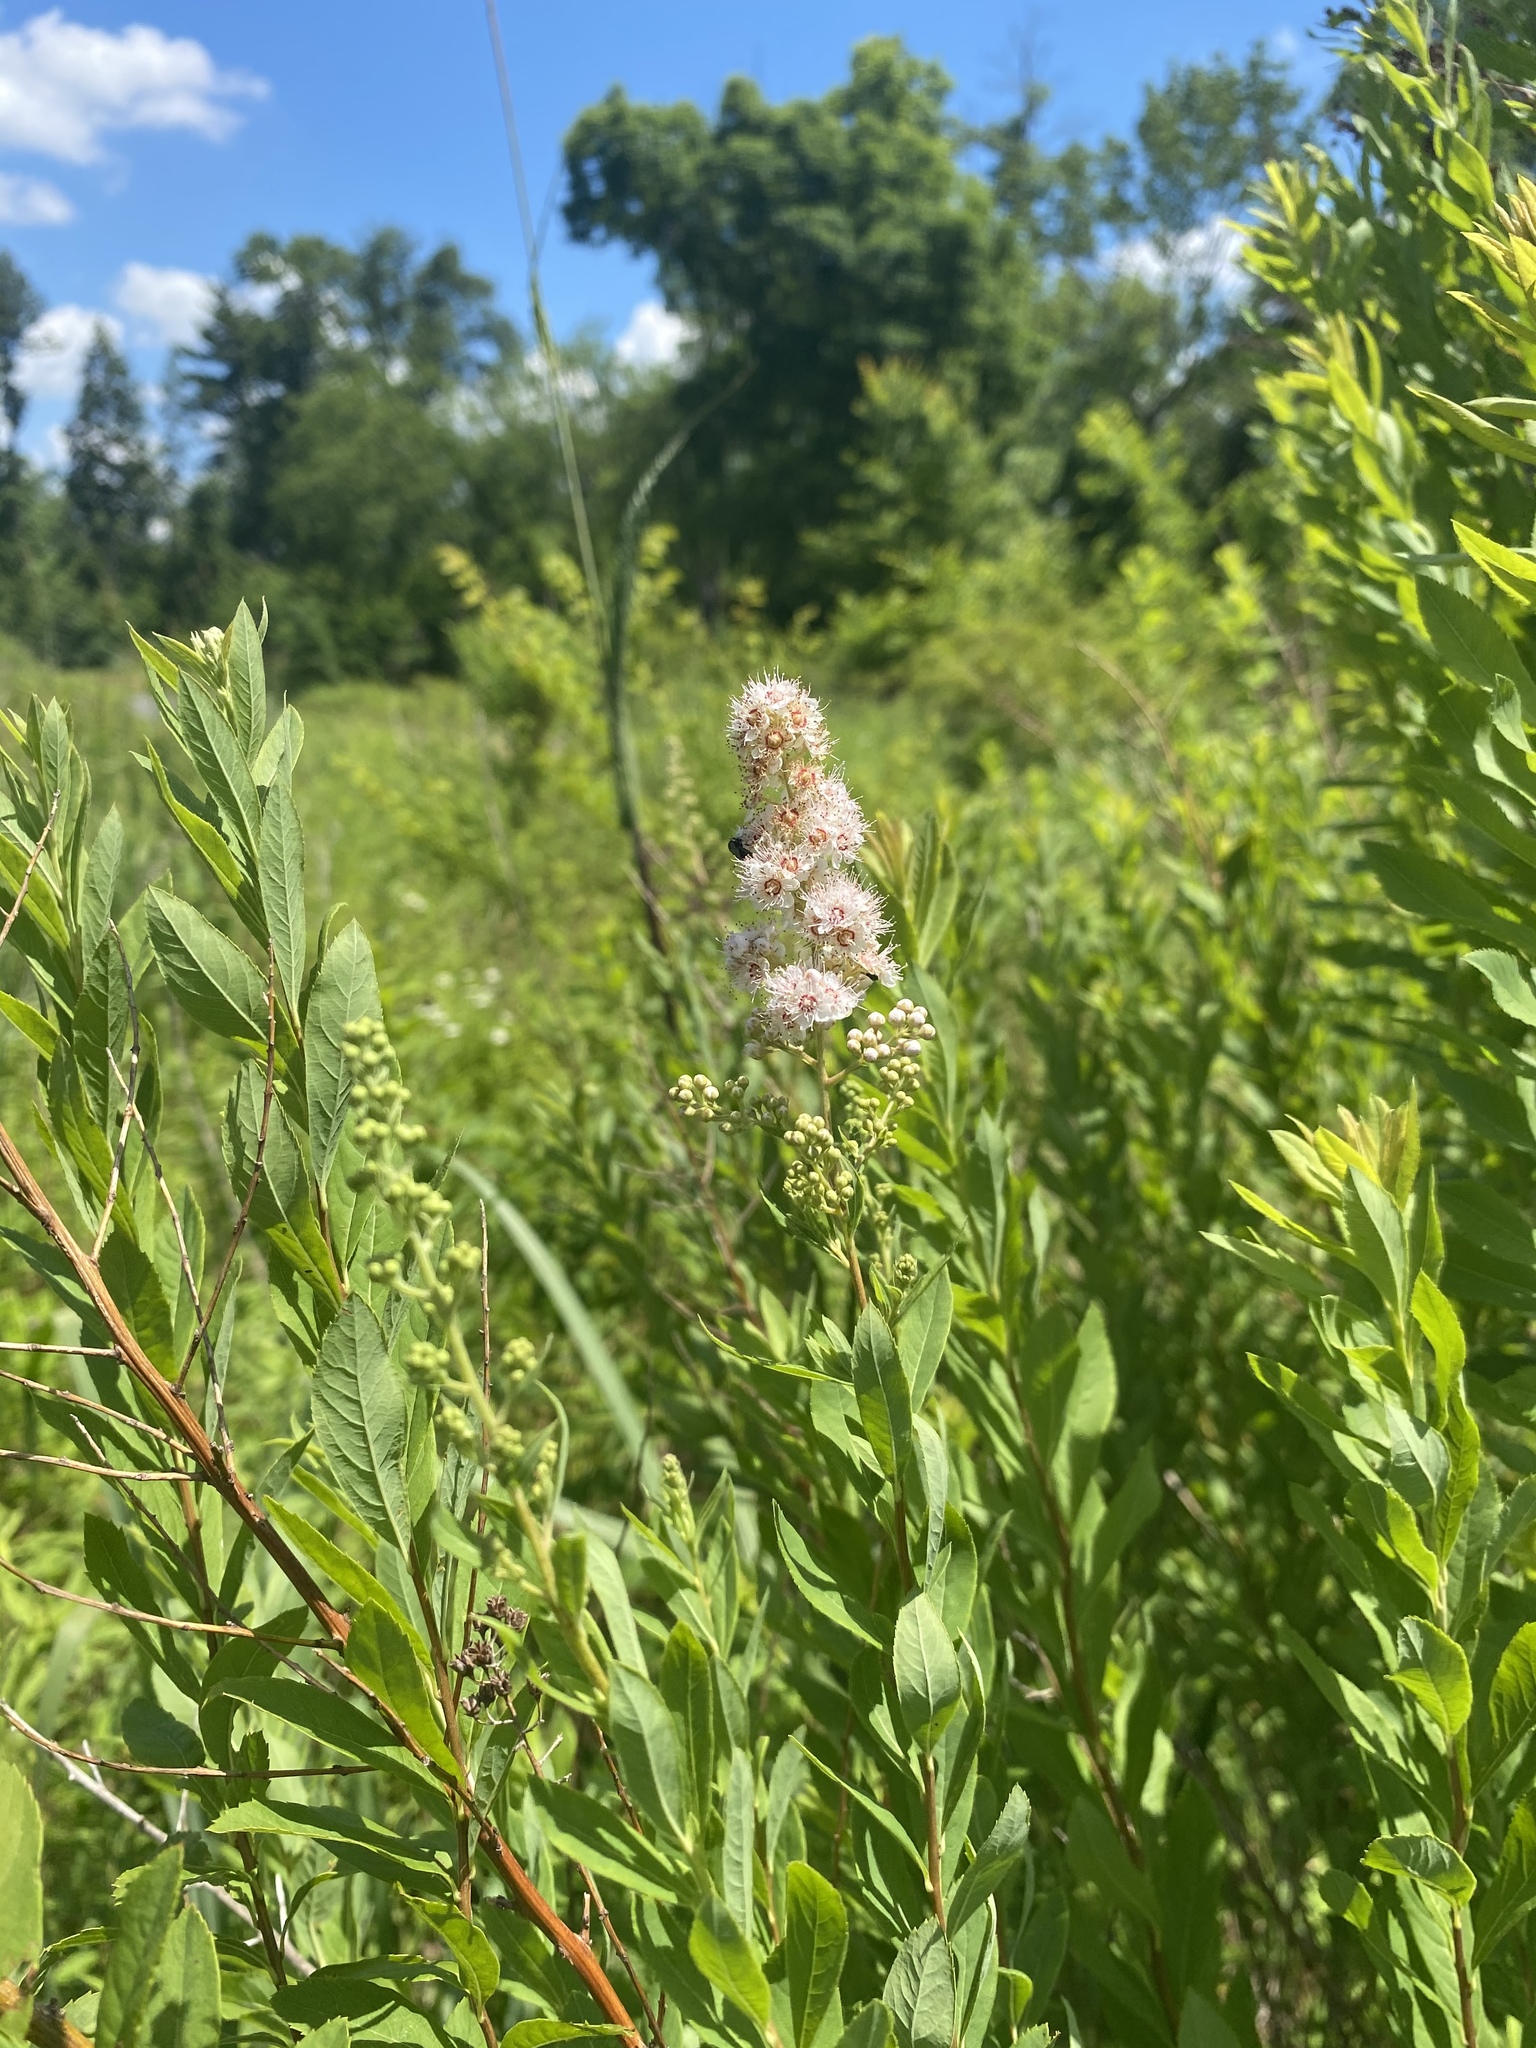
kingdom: Plantae
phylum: Tracheophyta
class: Magnoliopsida
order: Rosales
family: Rosaceae
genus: Spiraea
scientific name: Spiraea alba
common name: Pale bridewort
